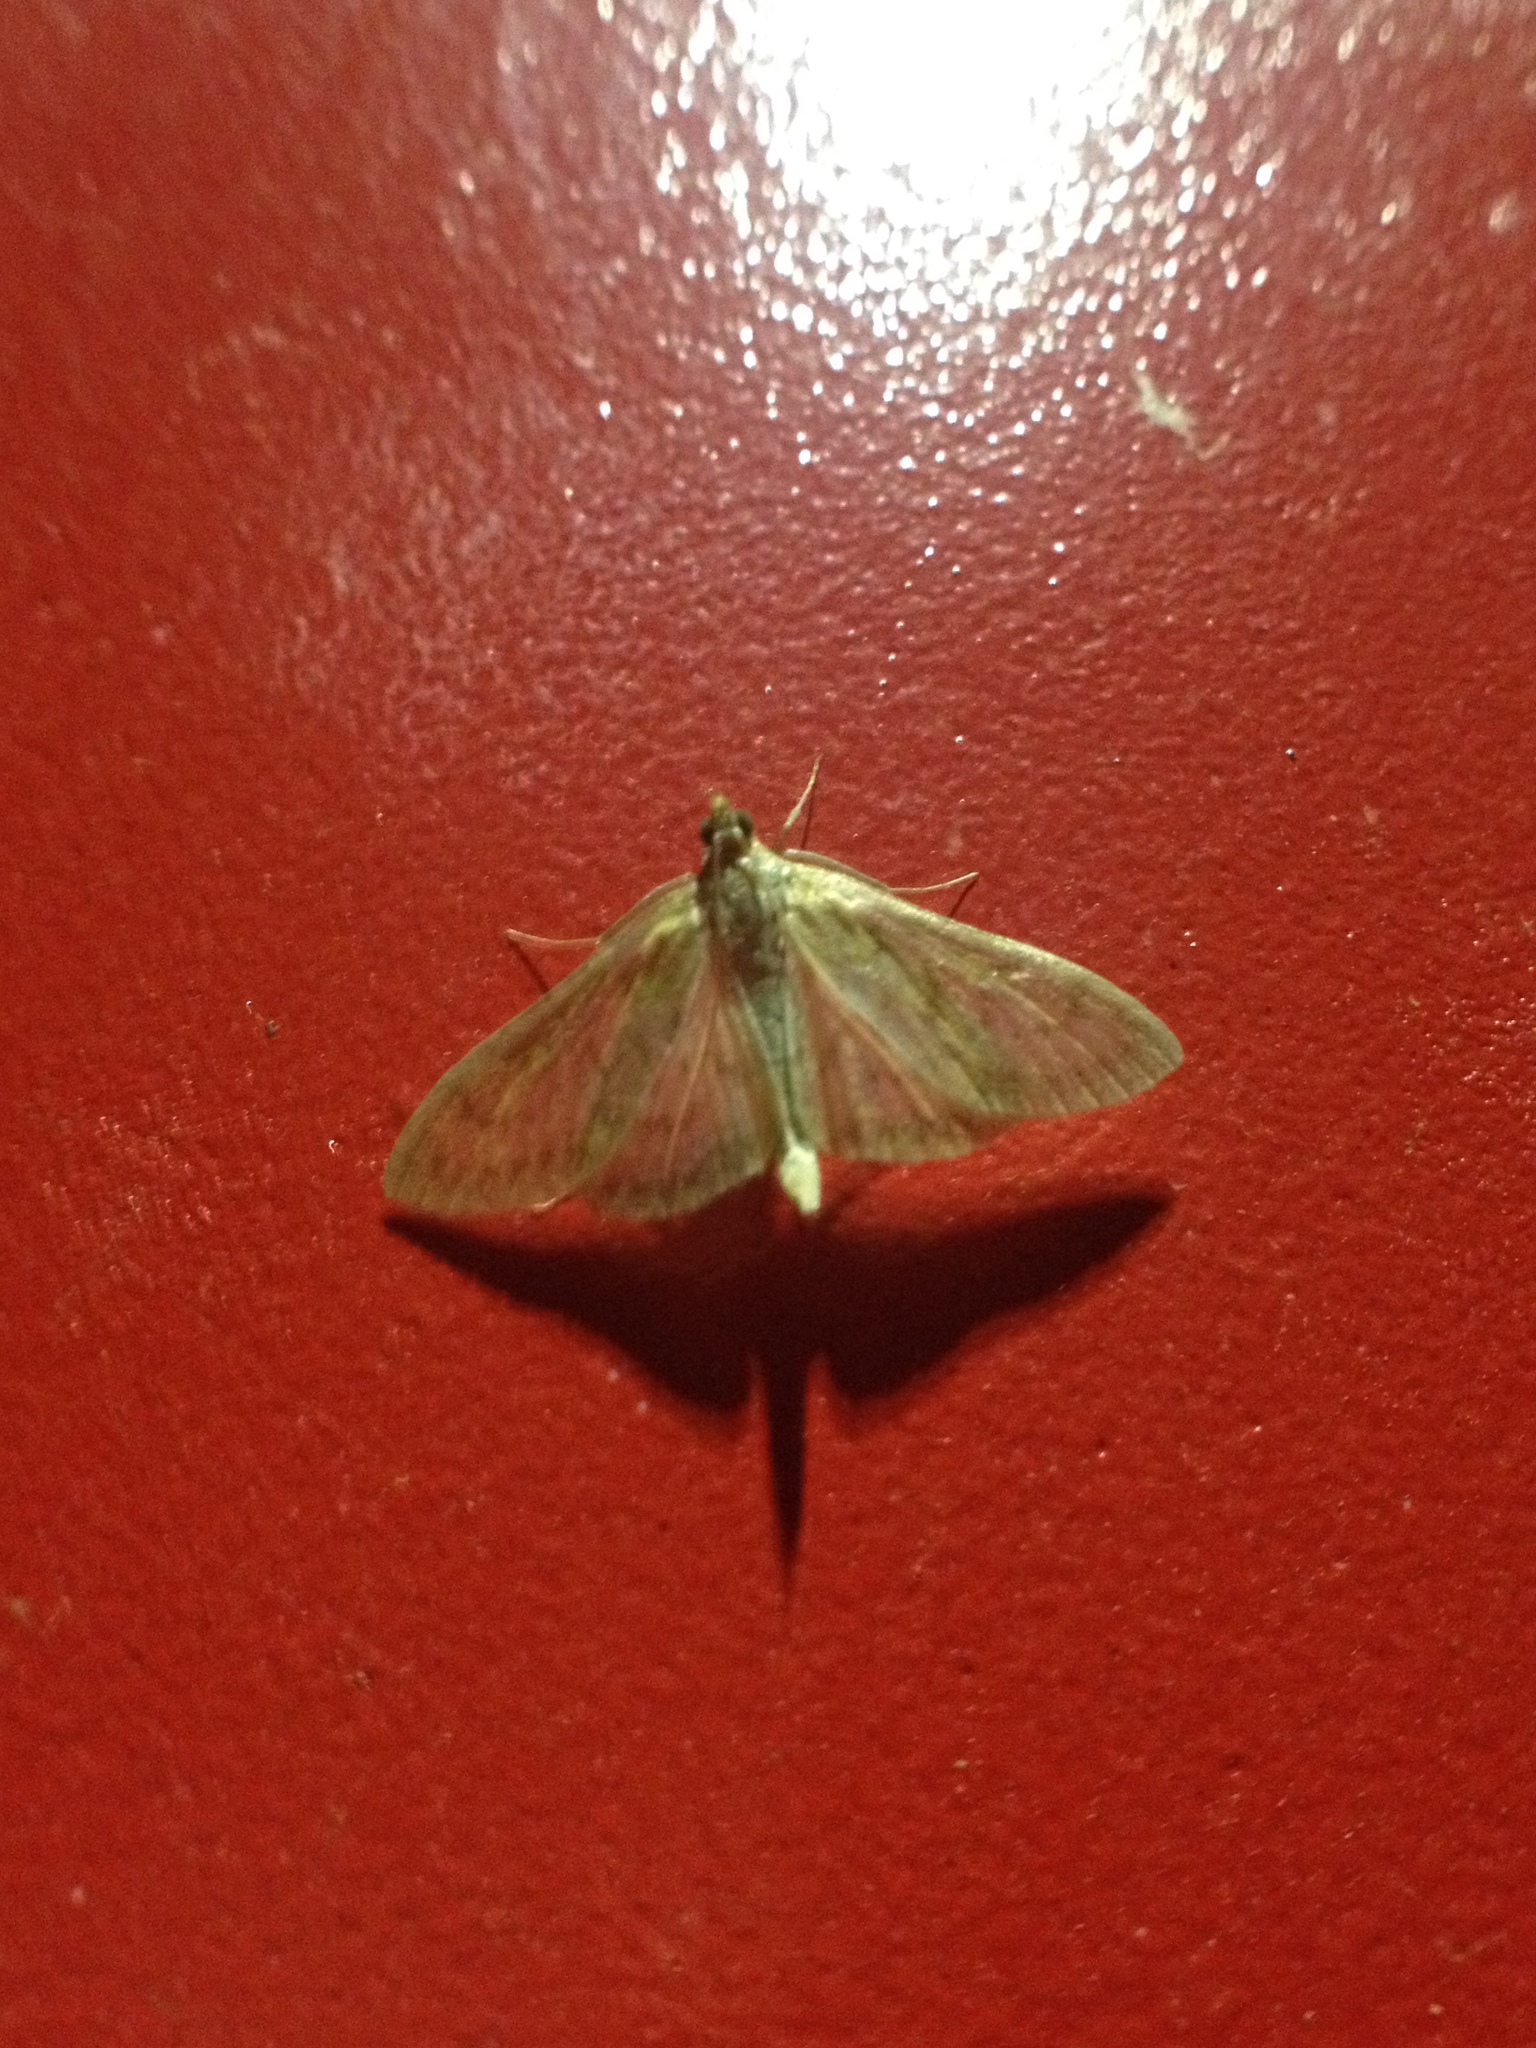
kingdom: Animalia
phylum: Arthropoda
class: Insecta
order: Lepidoptera
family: Crambidae
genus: Paratalanta
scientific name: Paratalanta pandalis
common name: Bordered pearl
